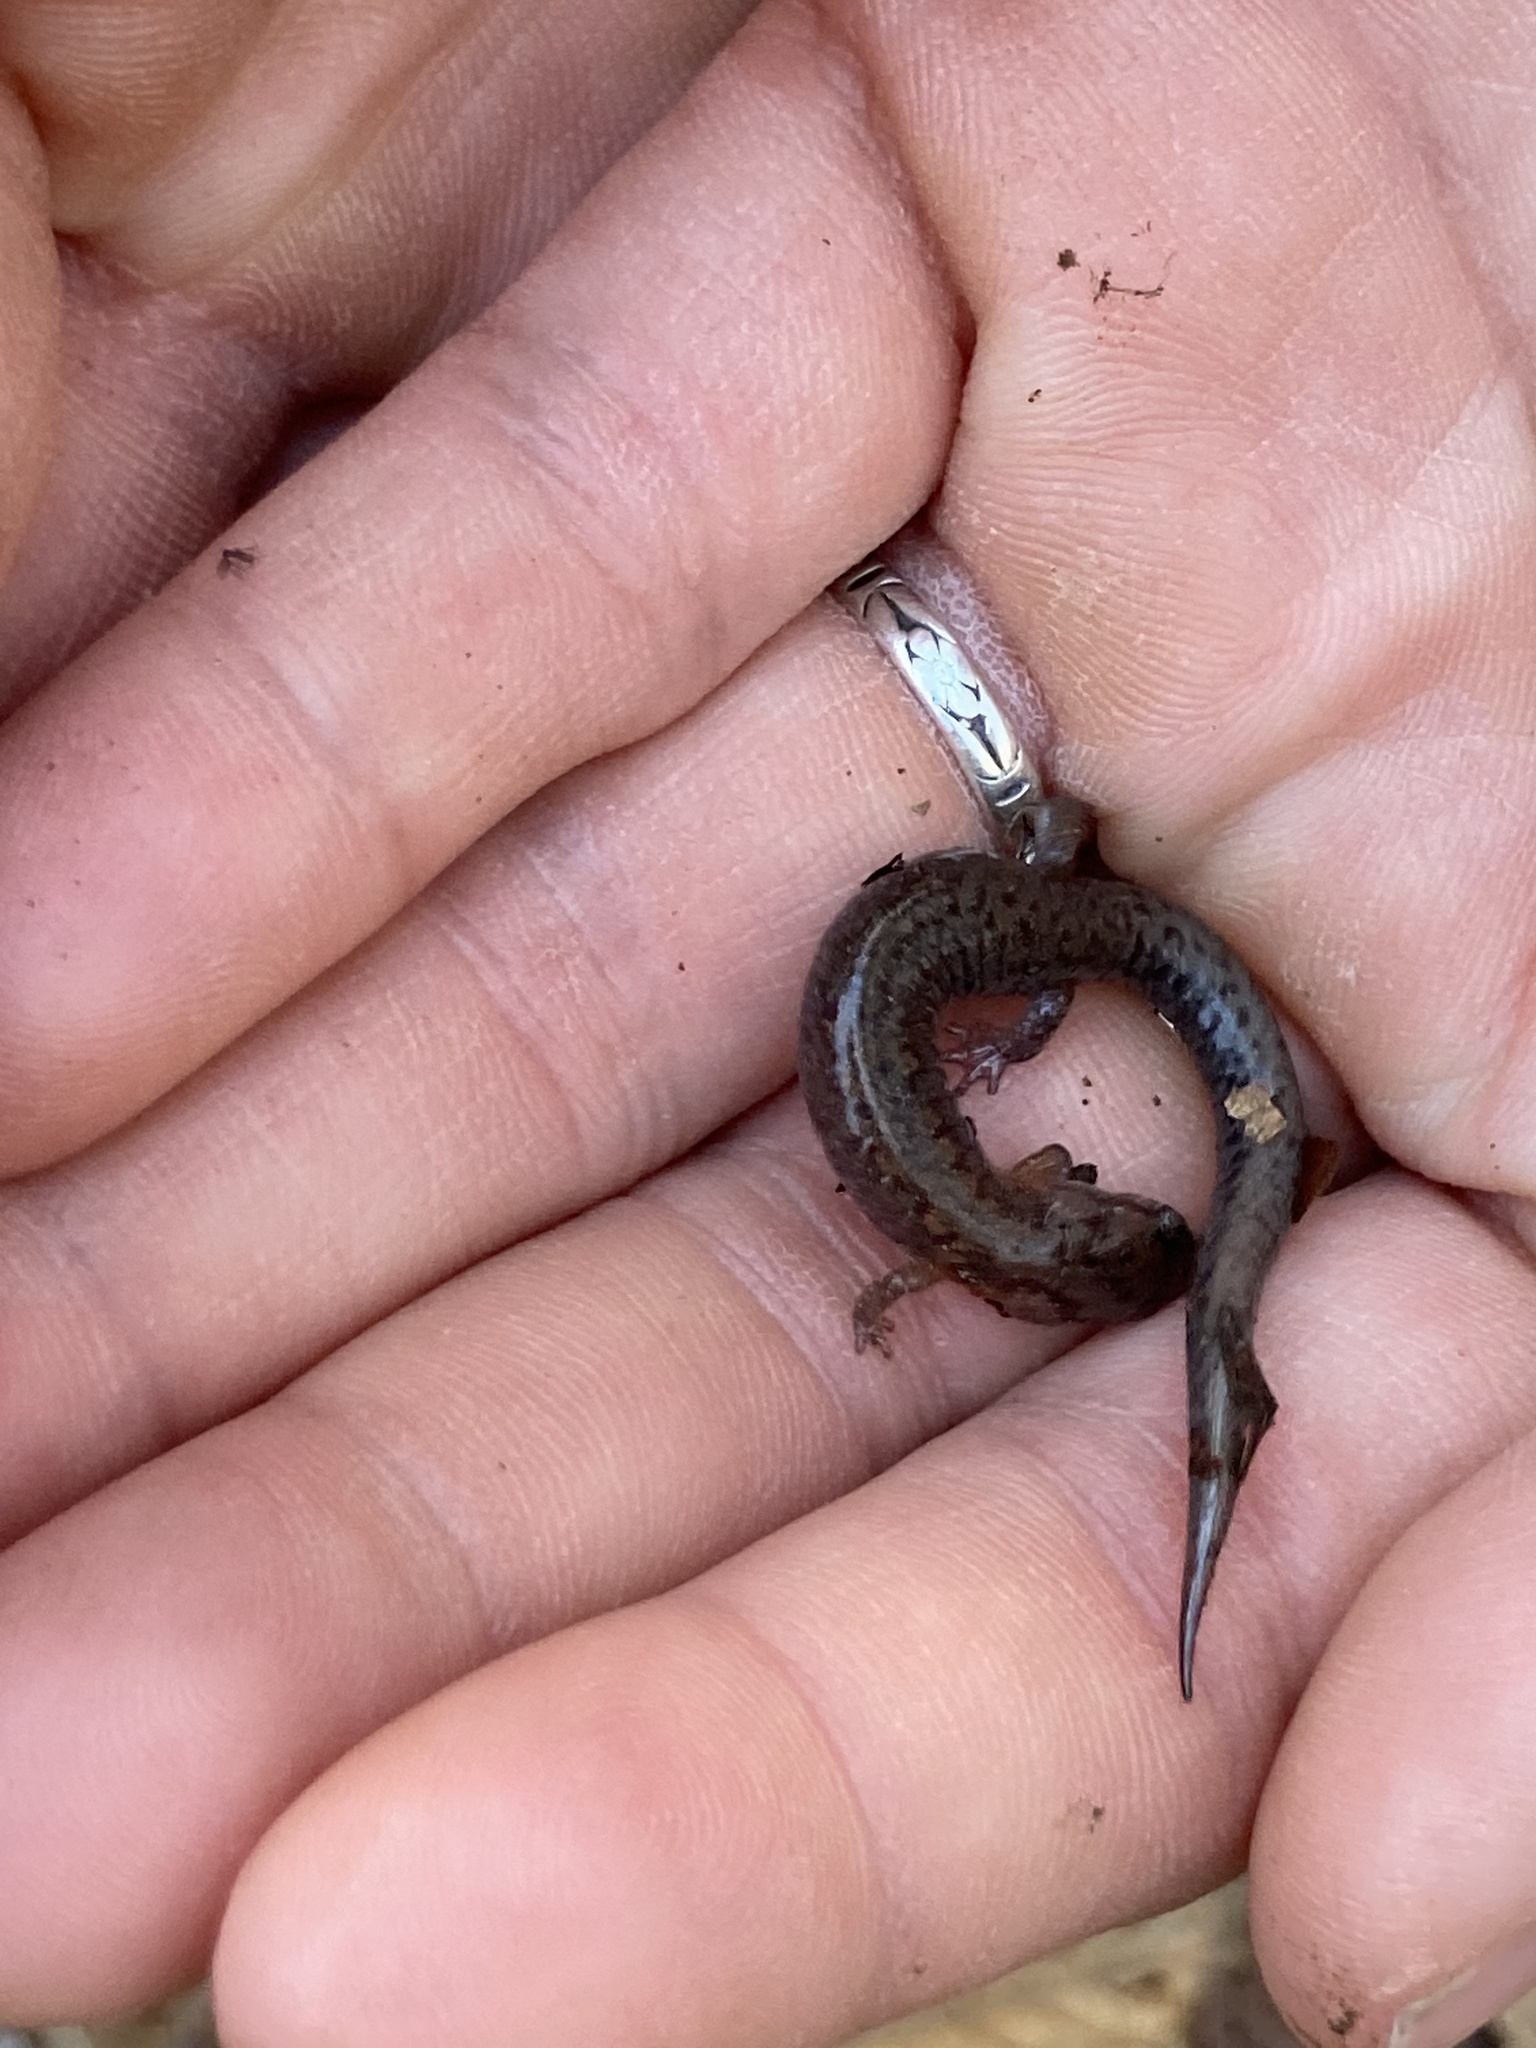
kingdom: Animalia
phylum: Chordata
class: Amphibia
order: Caudata
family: Plethodontidae
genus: Plethodon
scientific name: Plethodon dorsalis
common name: Northern zigzag salamander
